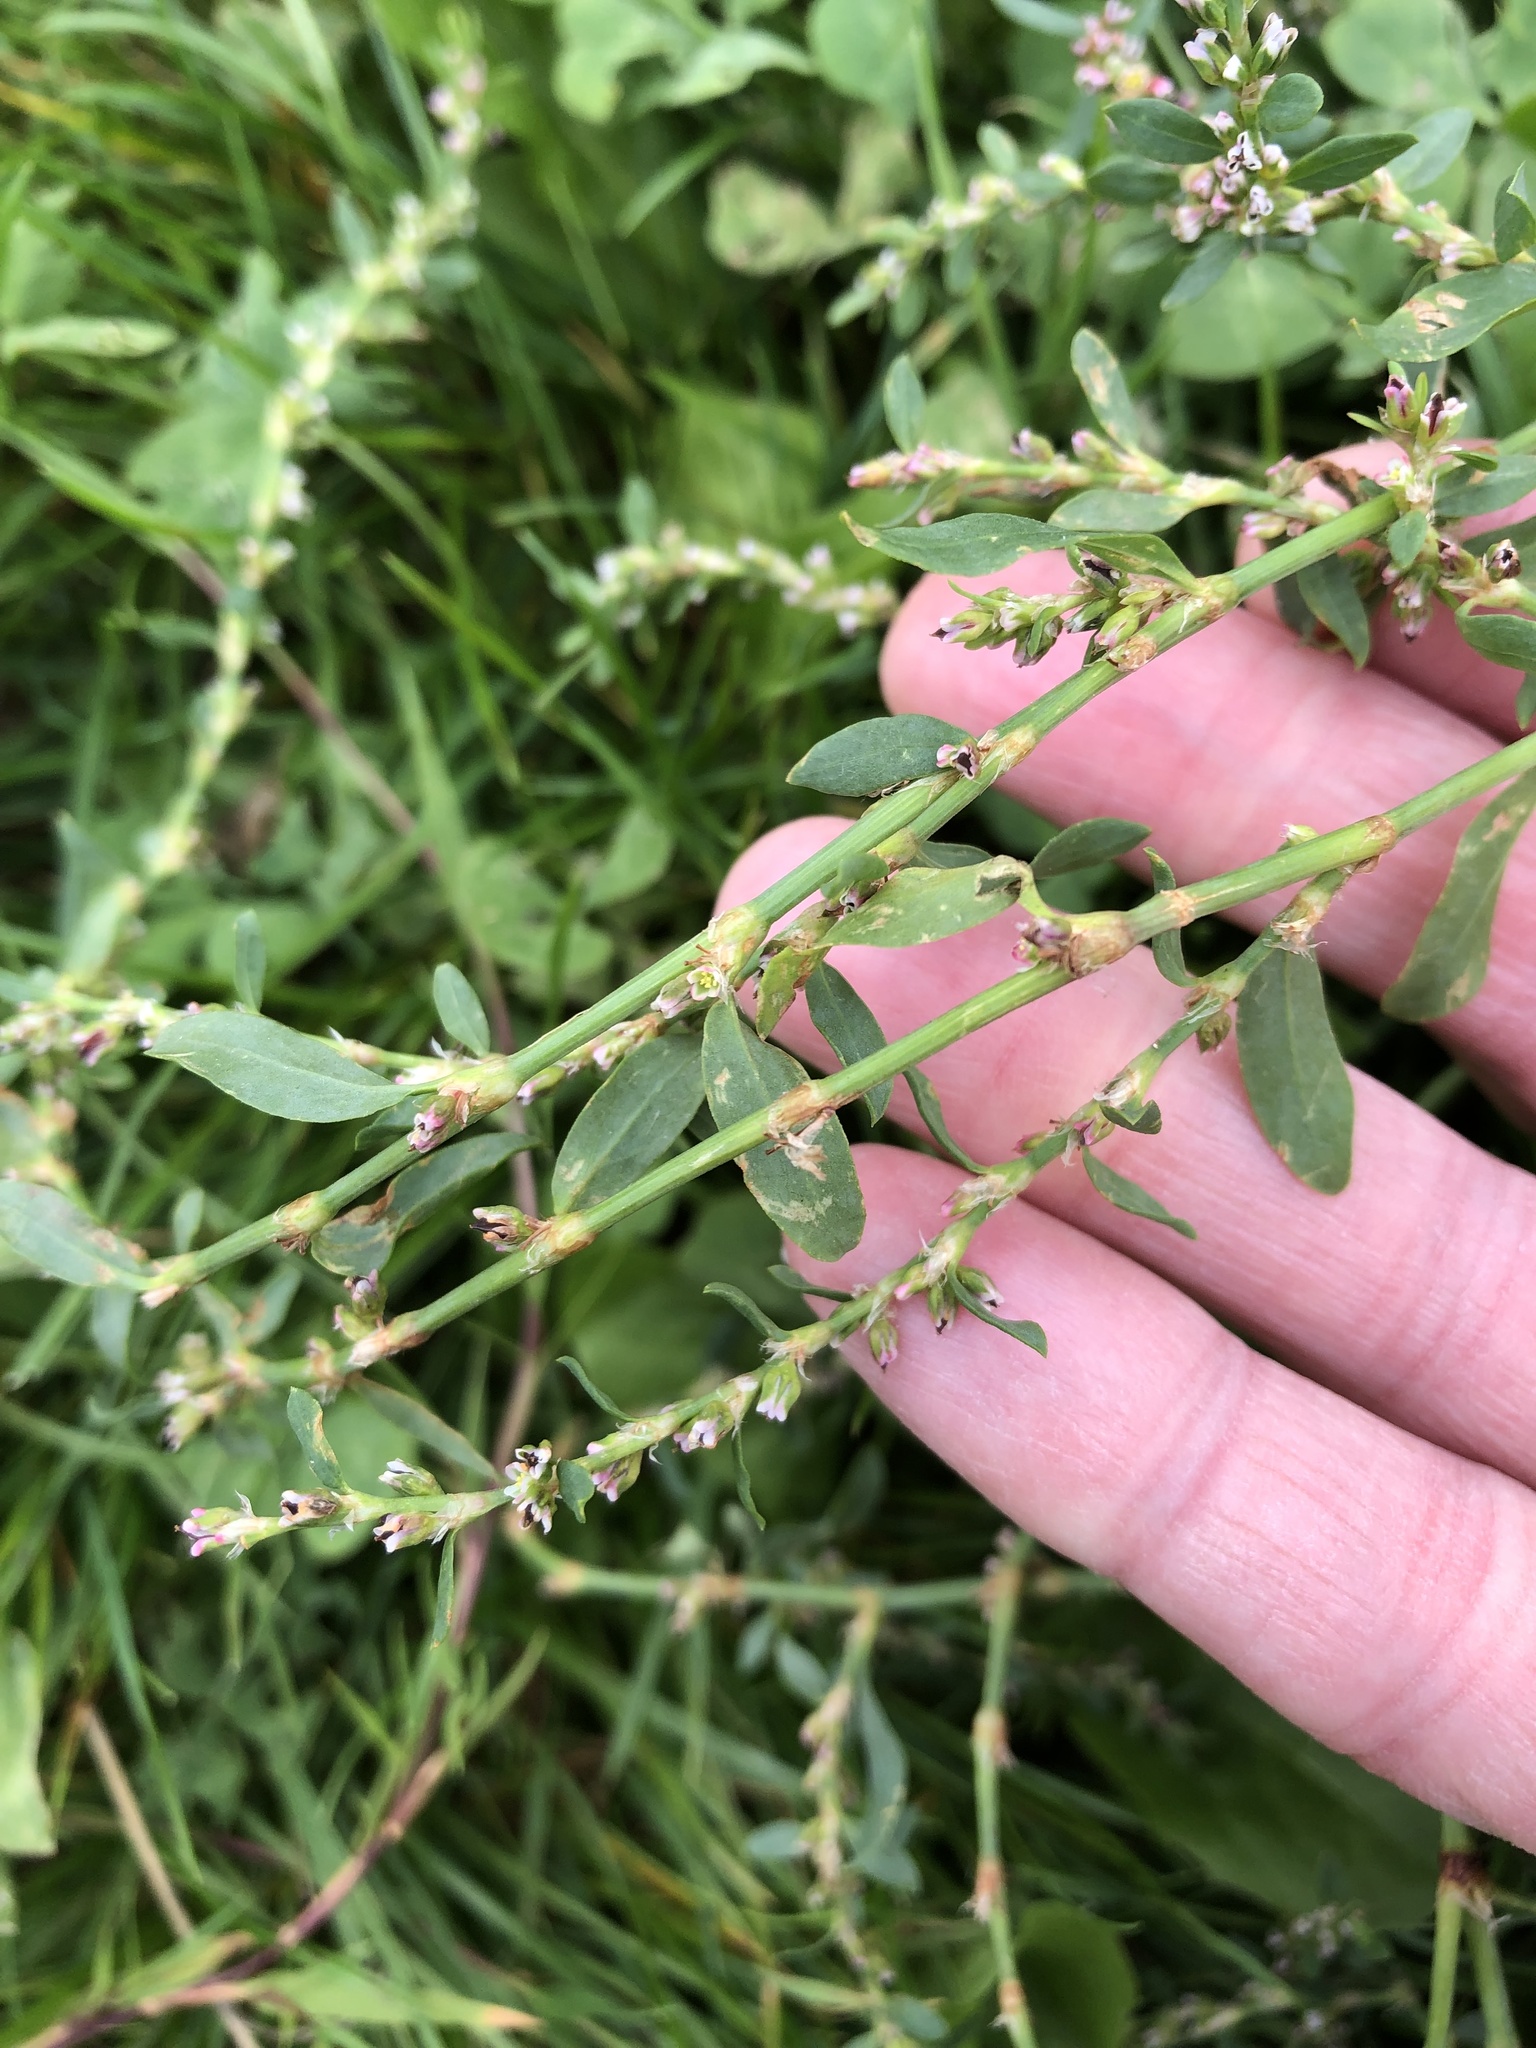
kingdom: Plantae
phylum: Tracheophyta
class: Magnoliopsida
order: Caryophyllales
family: Polygonaceae
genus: Polygonum
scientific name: Polygonum aviculare
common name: Prostrate knotweed
